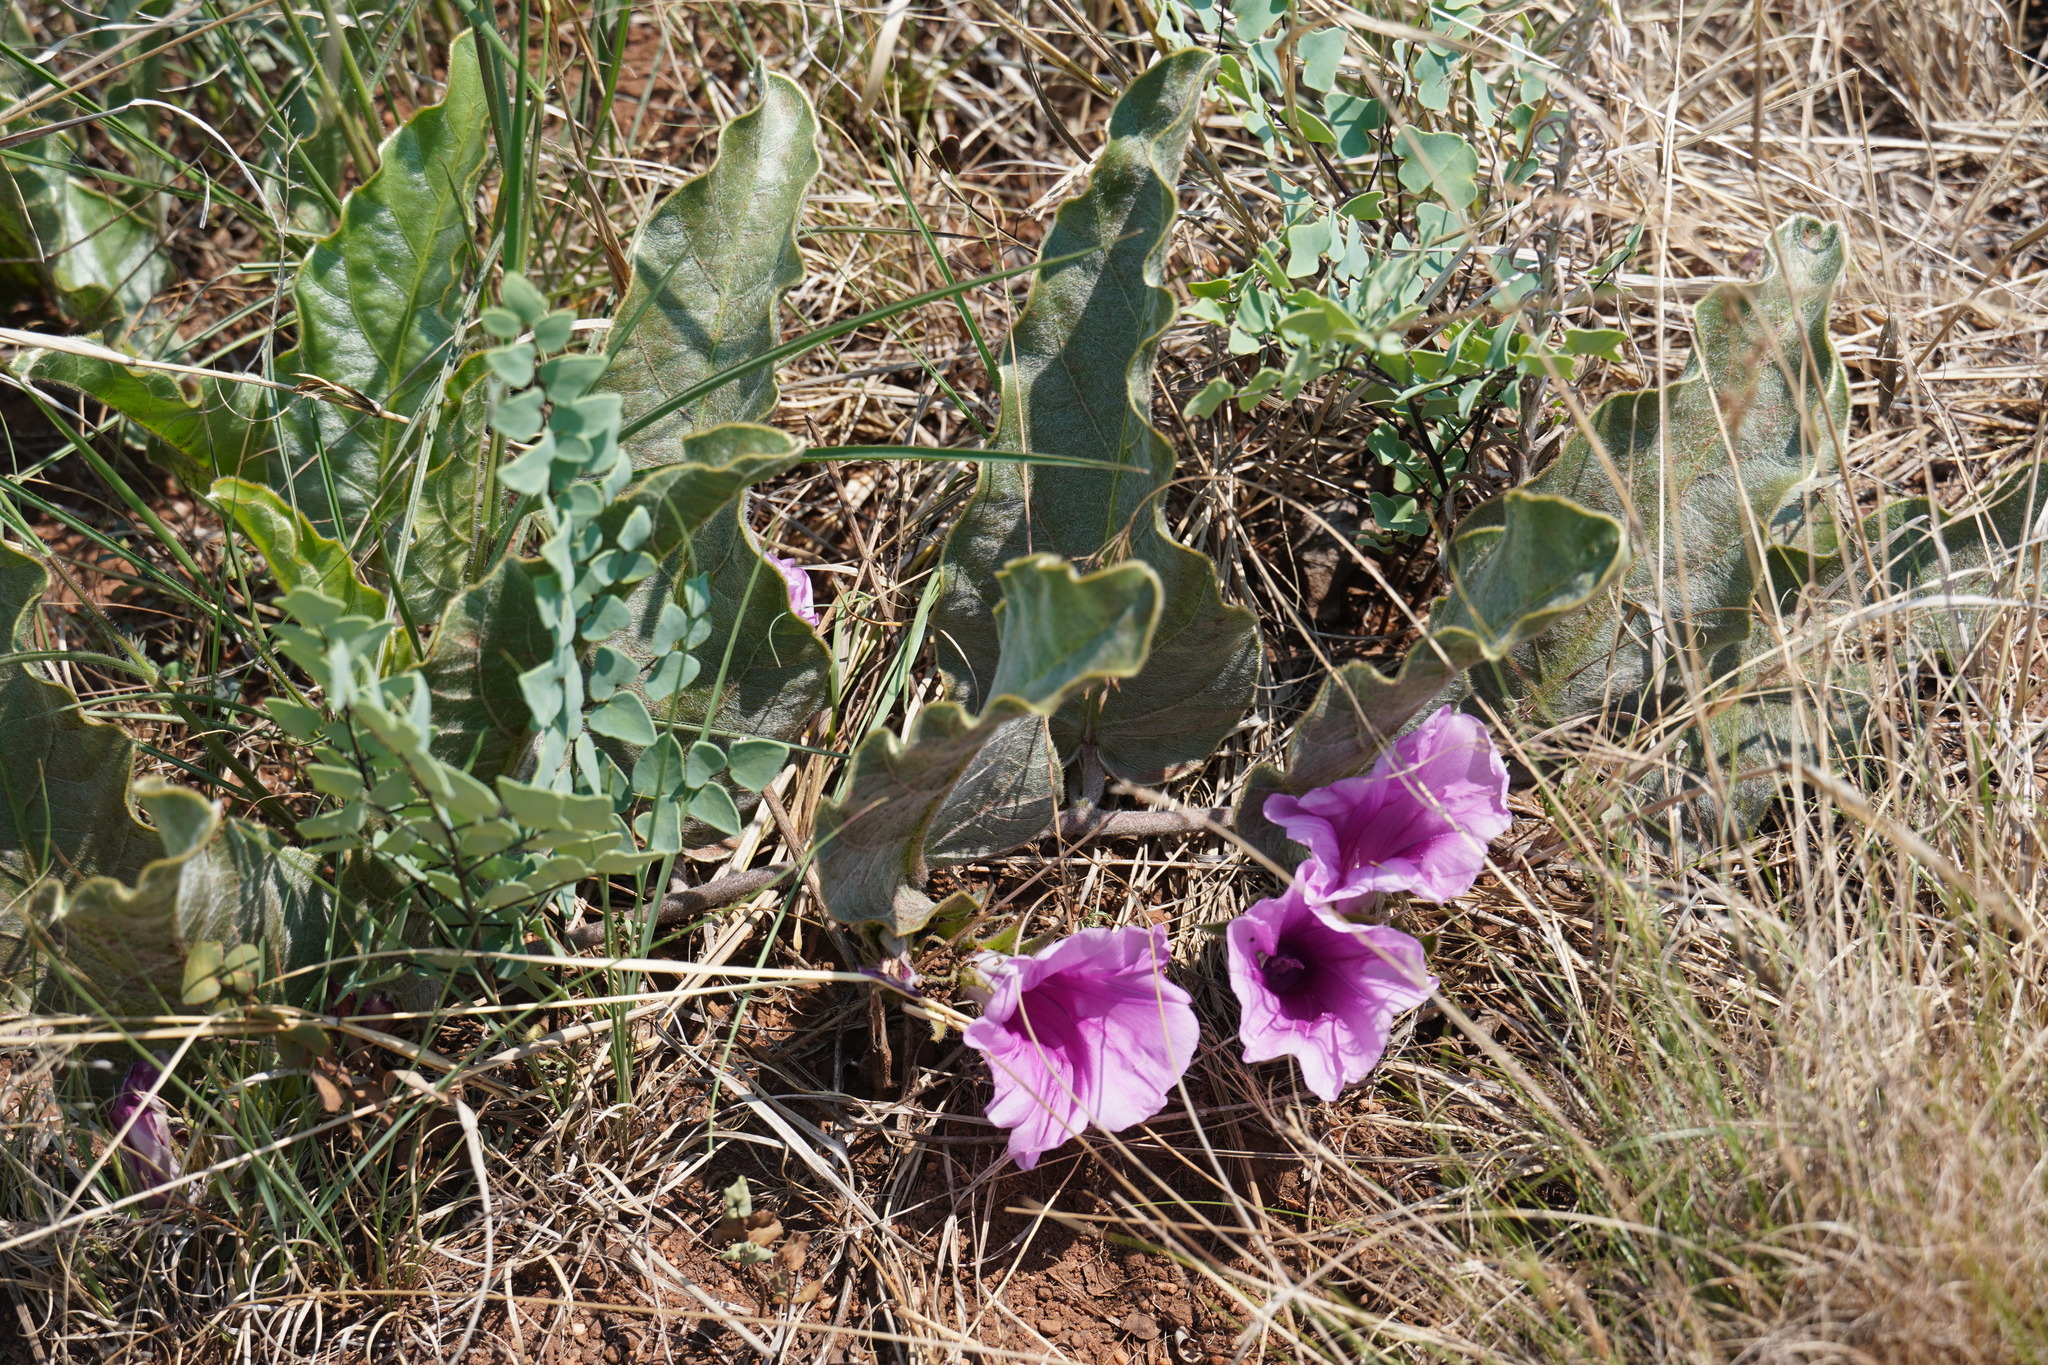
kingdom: Plantae
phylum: Tracheophyta
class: Magnoliopsida
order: Solanales
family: Convolvulaceae
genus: Ipomoea
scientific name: Ipomoea ommanneyi
